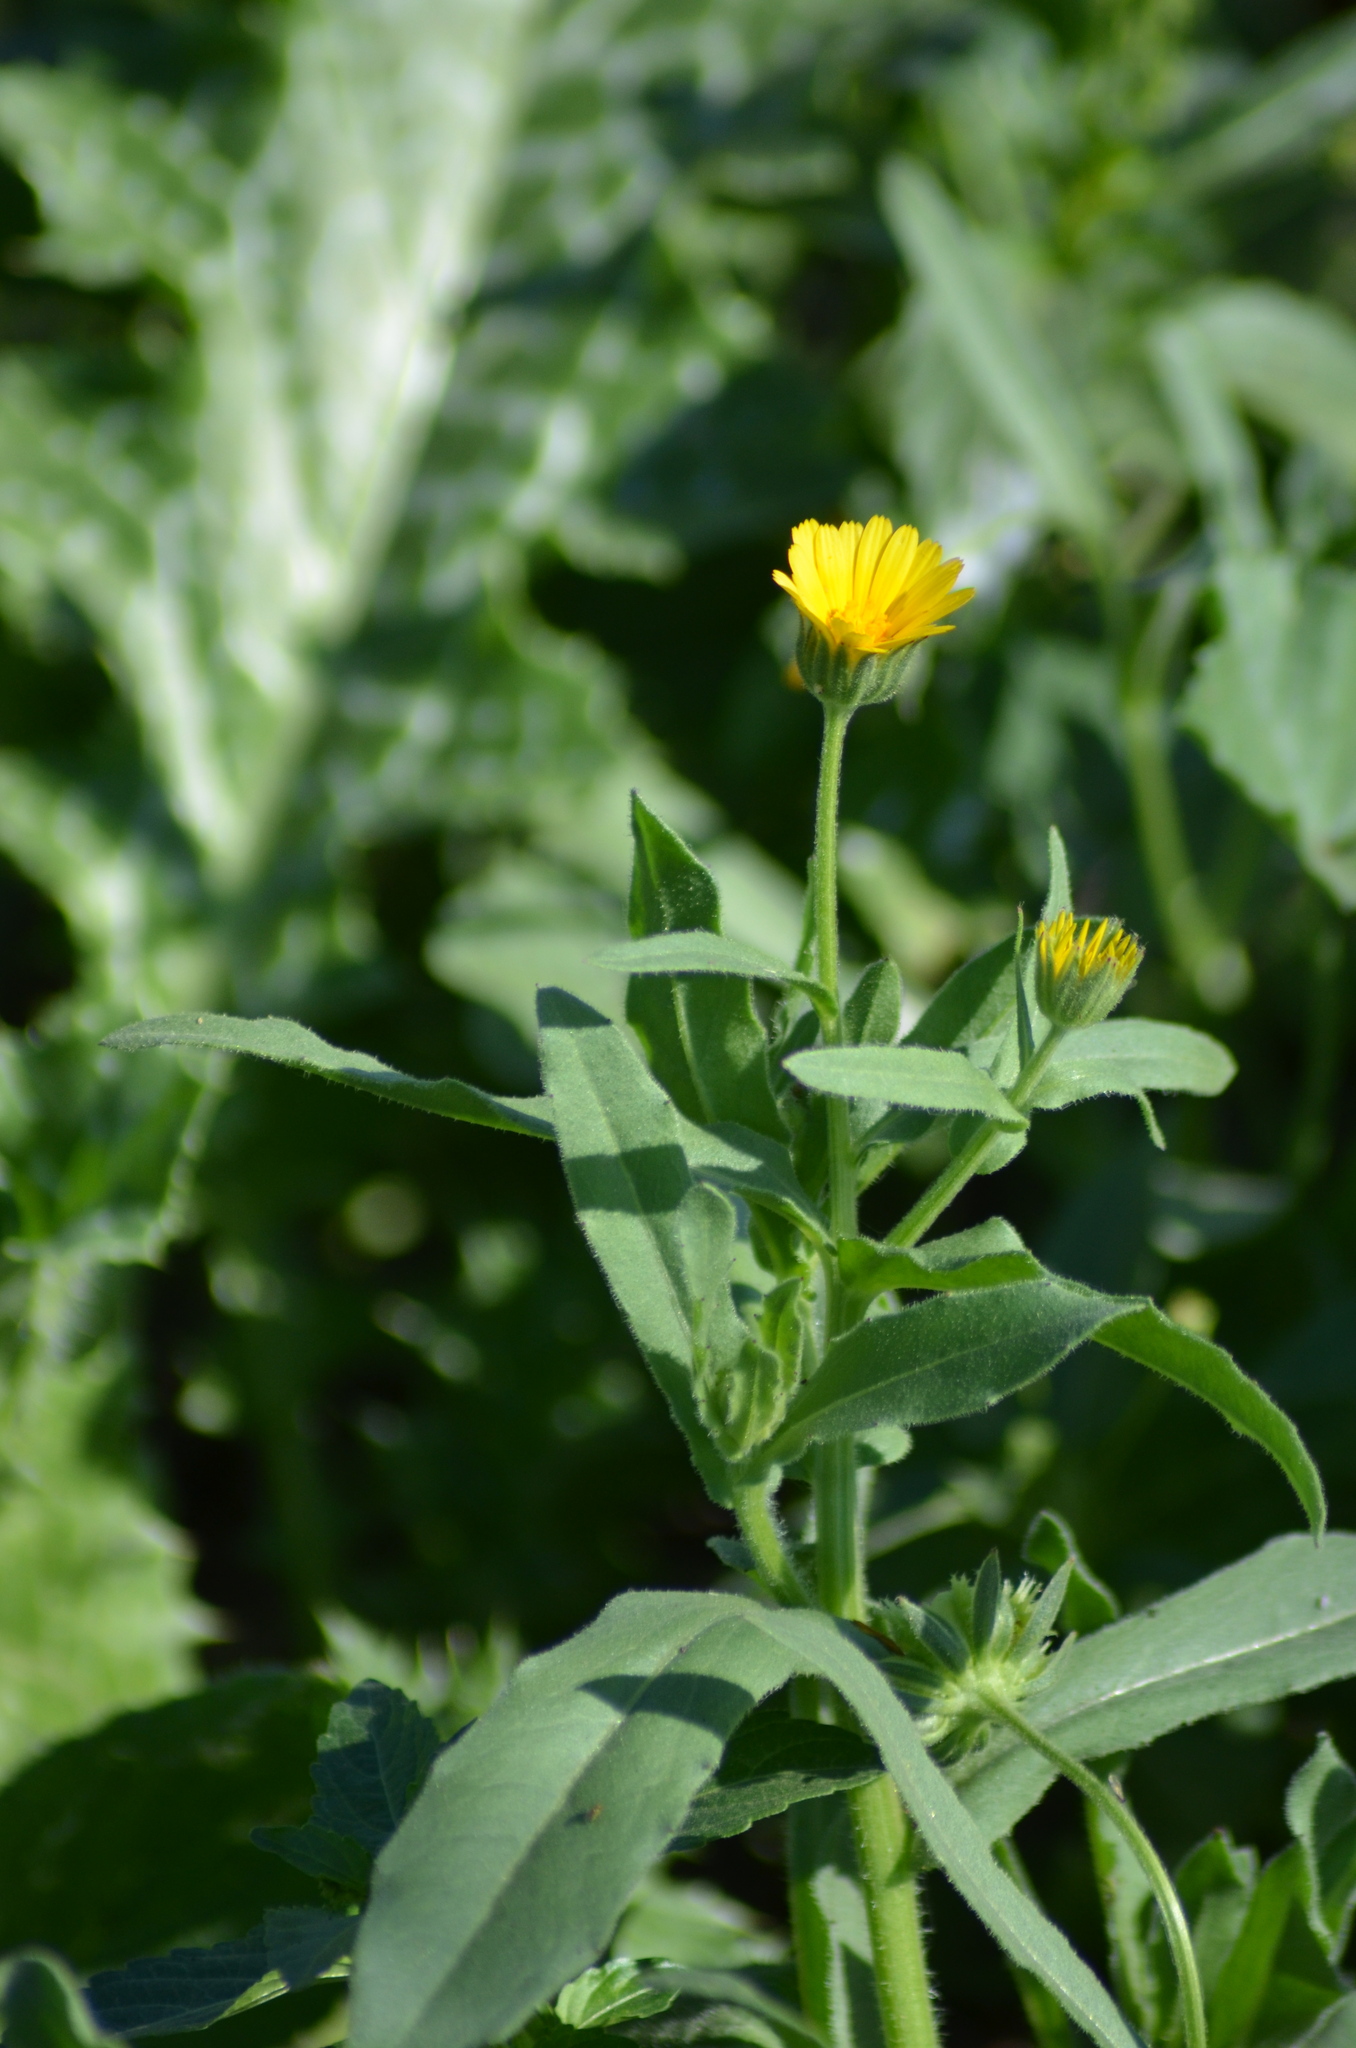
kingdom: Plantae
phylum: Tracheophyta
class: Magnoliopsida
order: Asterales
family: Asteraceae
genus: Calendula
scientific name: Calendula arvensis
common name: Field marigold
